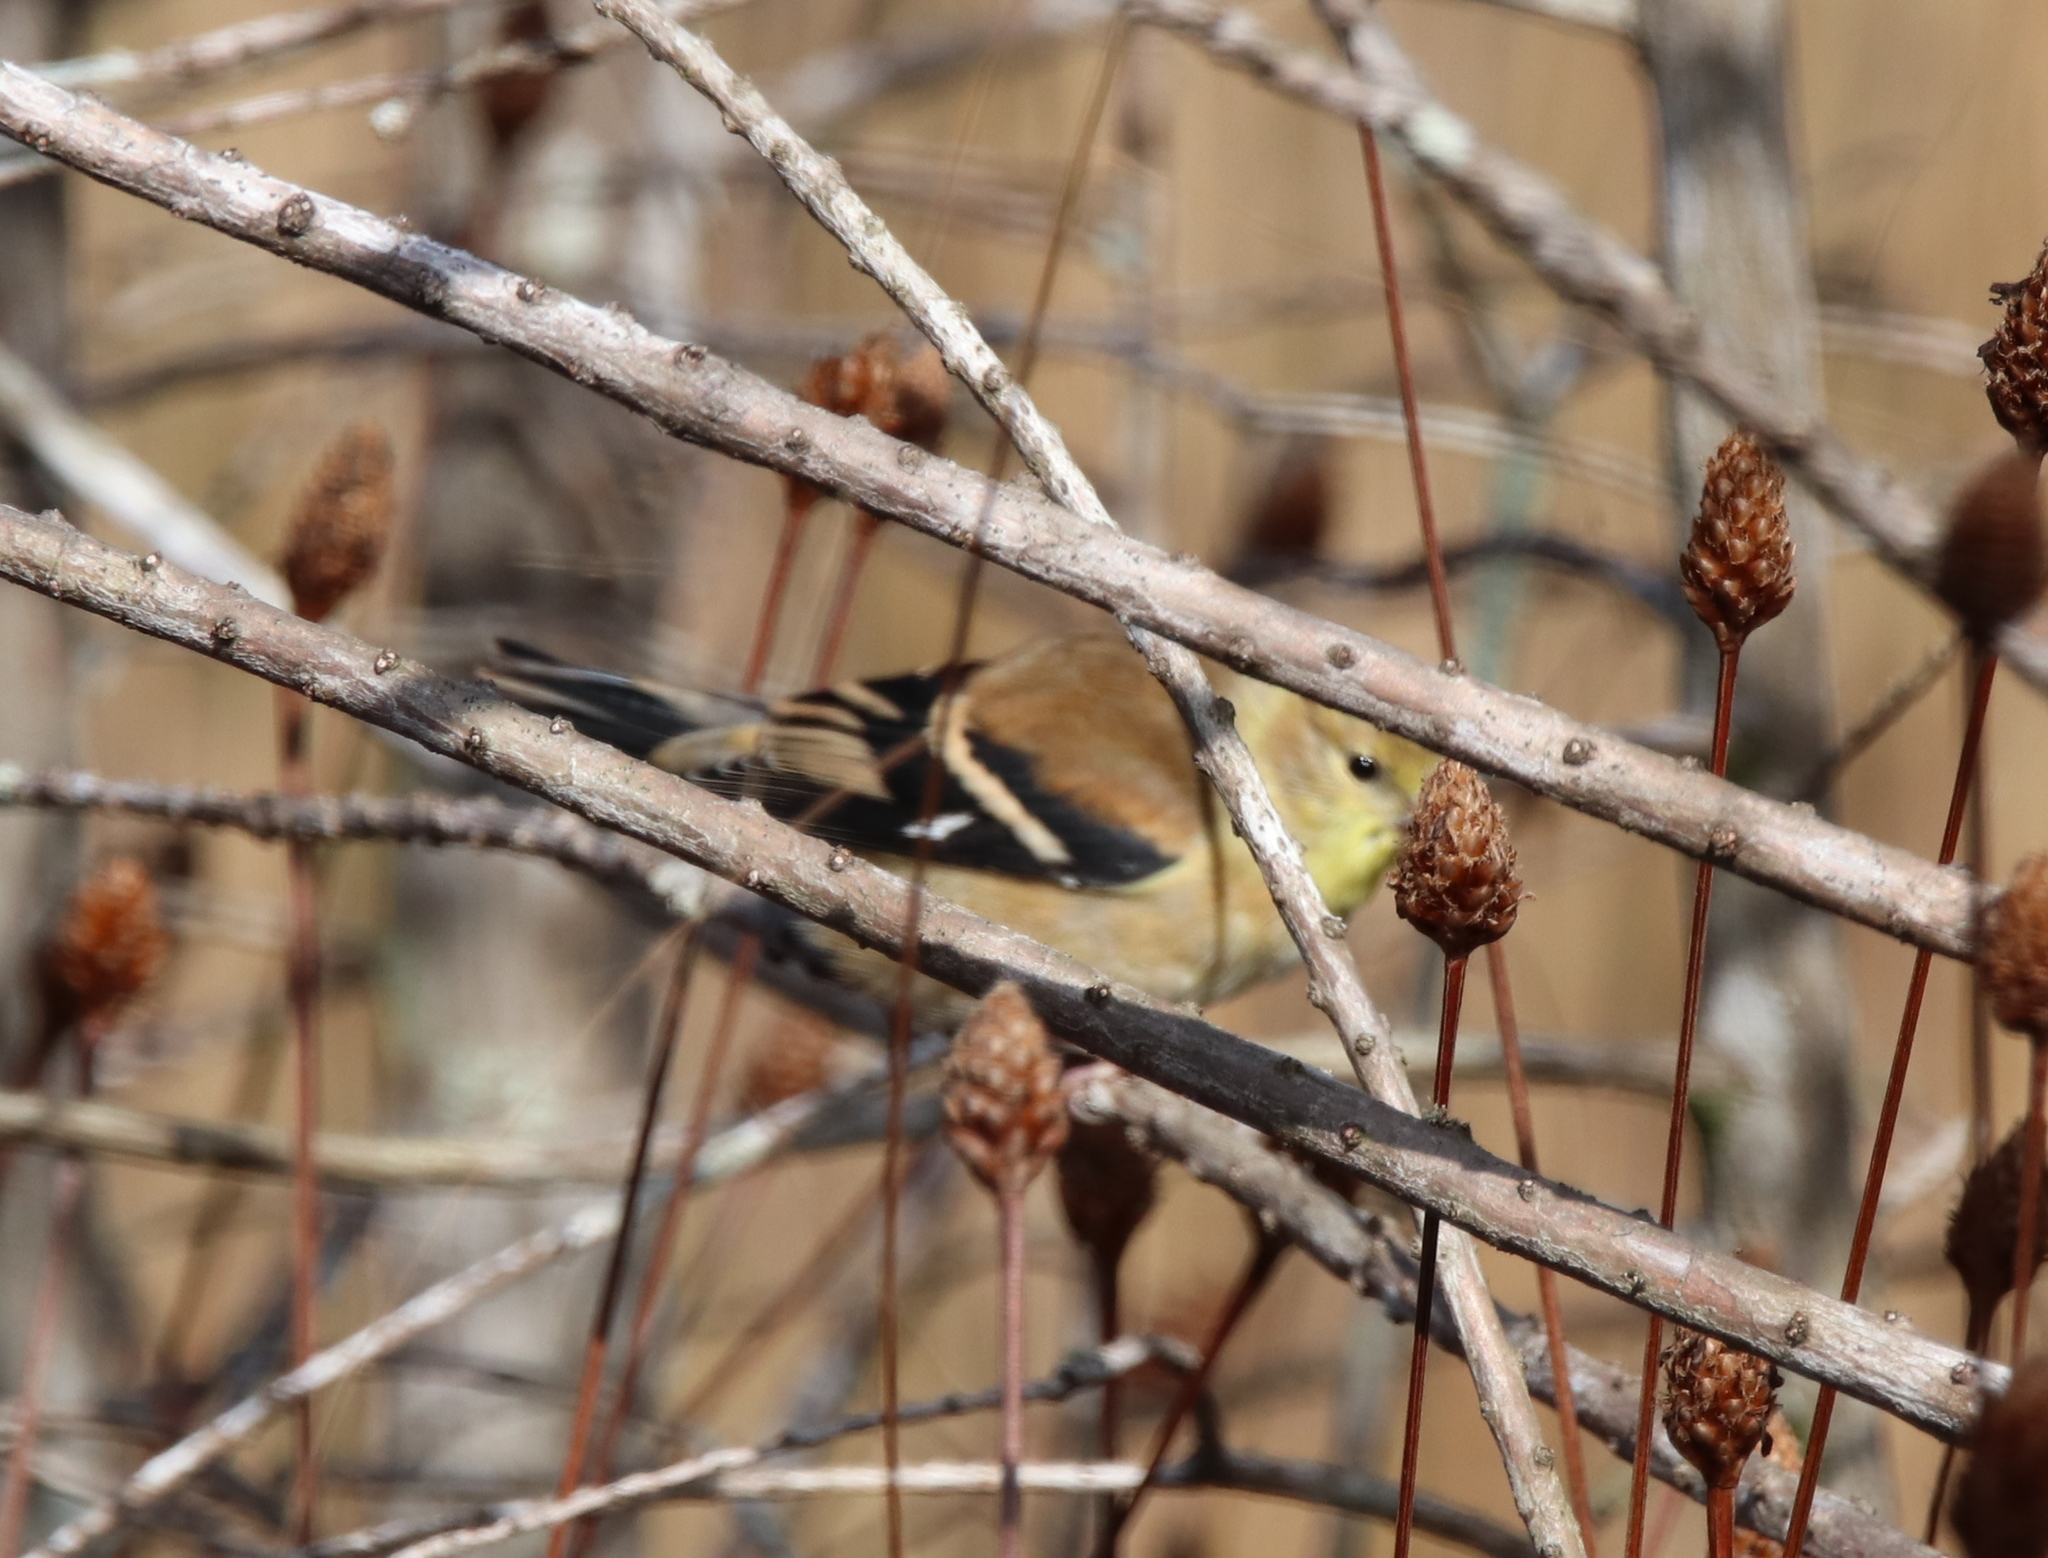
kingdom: Animalia
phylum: Chordata
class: Aves
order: Passeriformes
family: Fringillidae
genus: Spinus
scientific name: Spinus tristis
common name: American goldfinch
